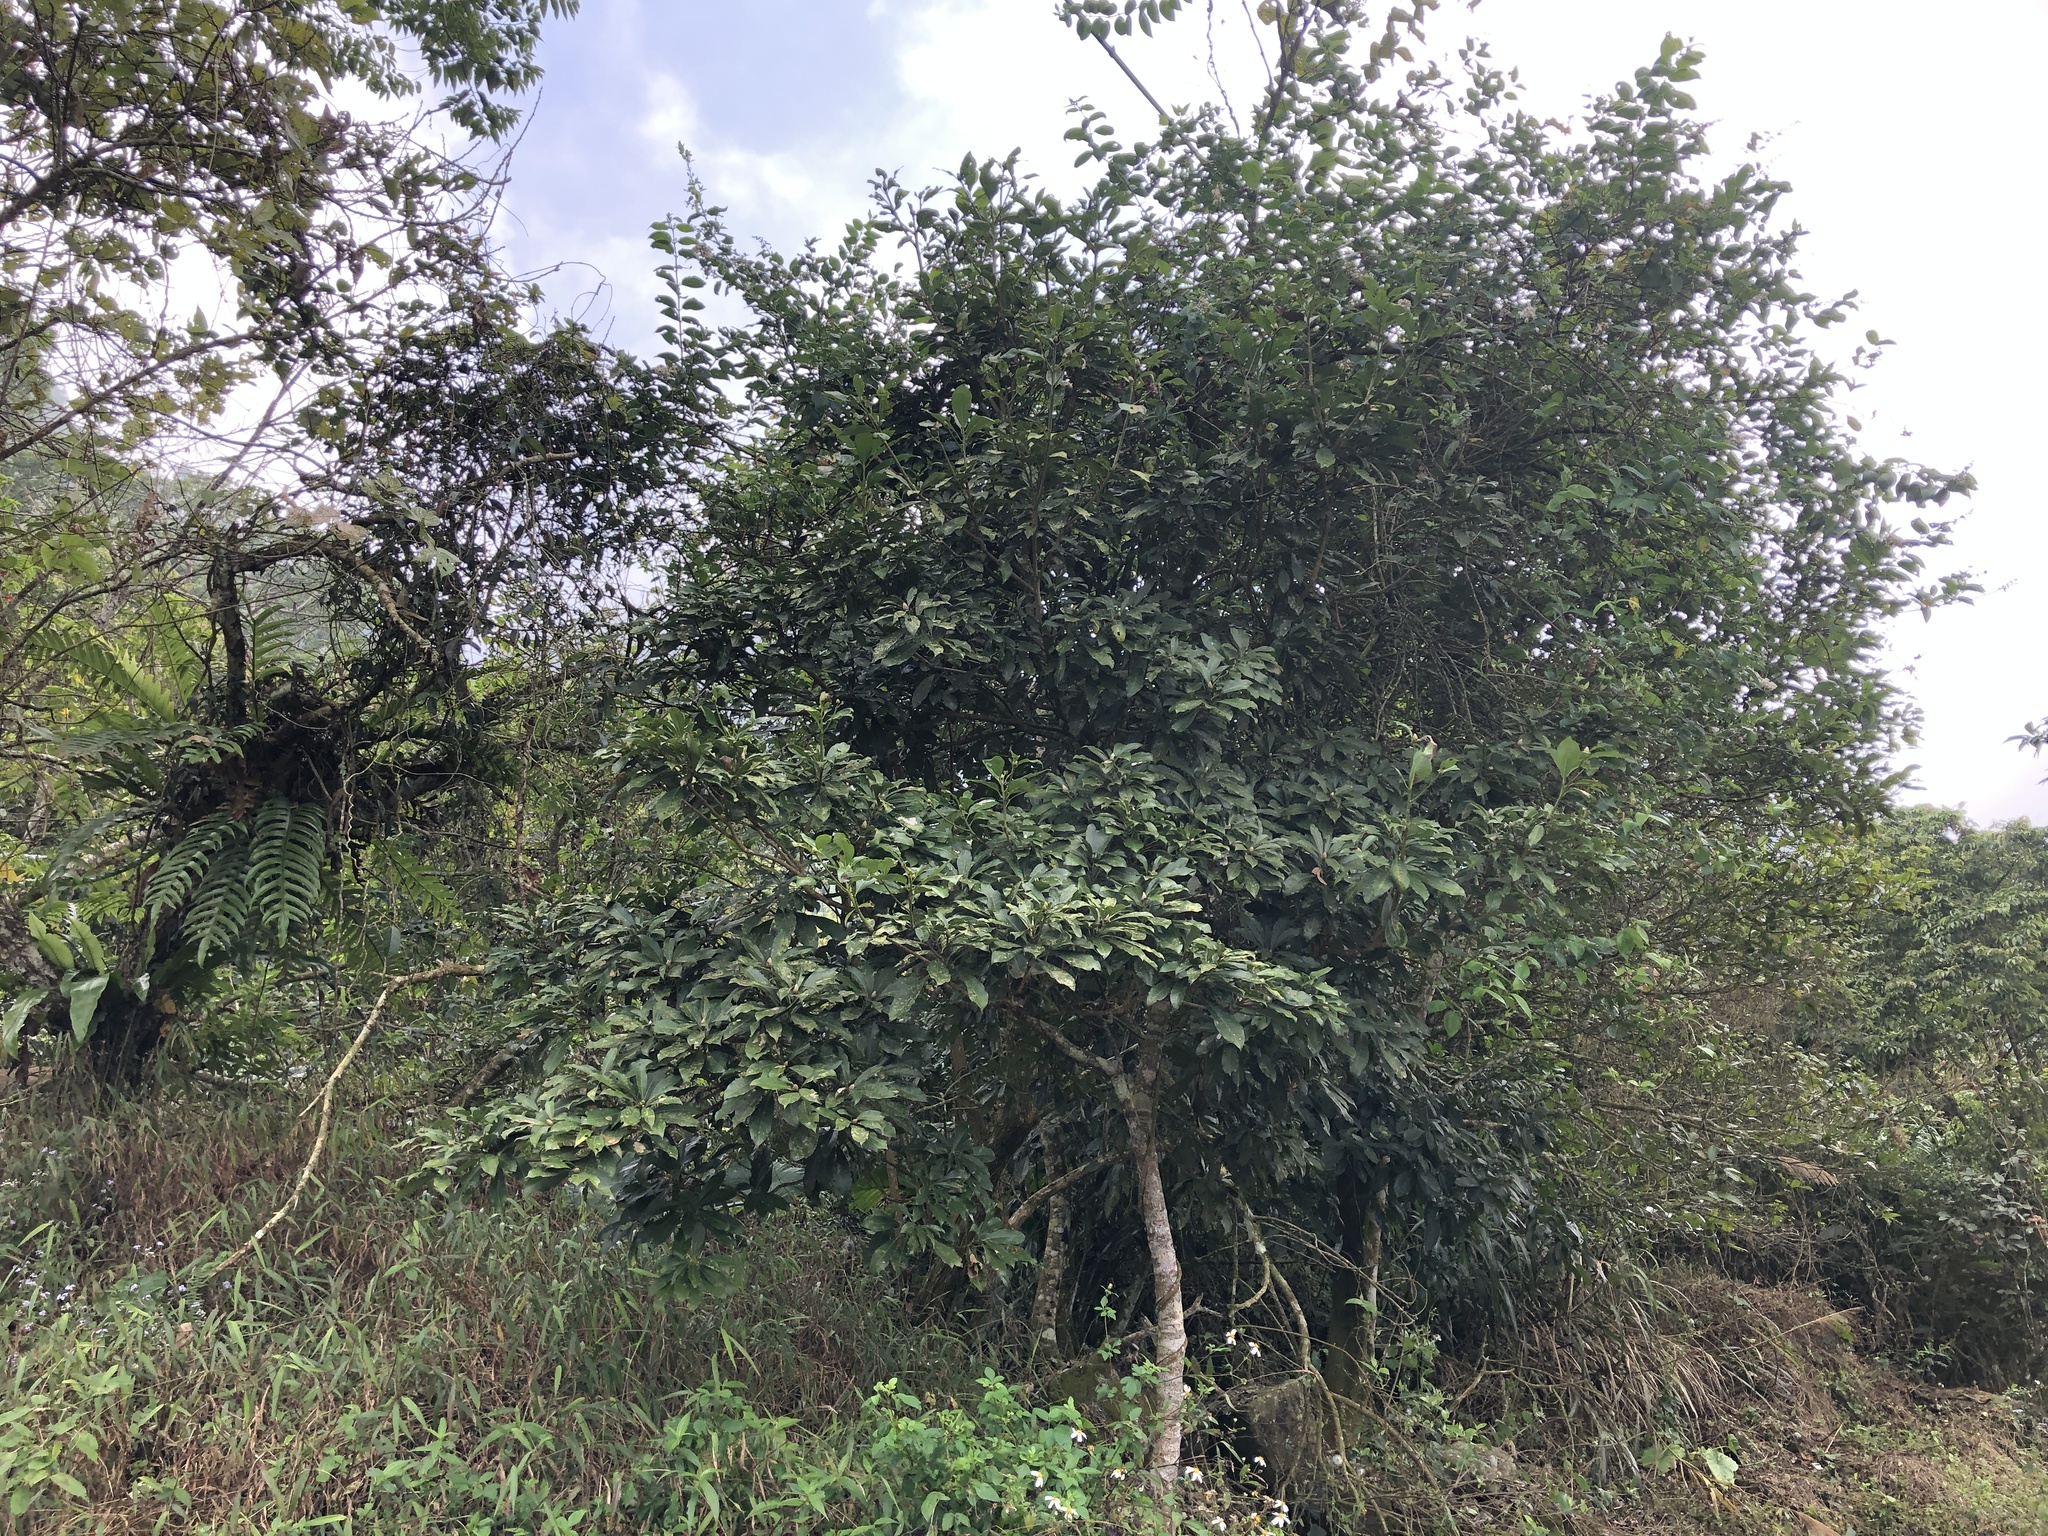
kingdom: Plantae
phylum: Tracheophyta
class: Magnoliopsida
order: Laurales
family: Lauraceae
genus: Machilus
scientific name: Machilus thunbergii
